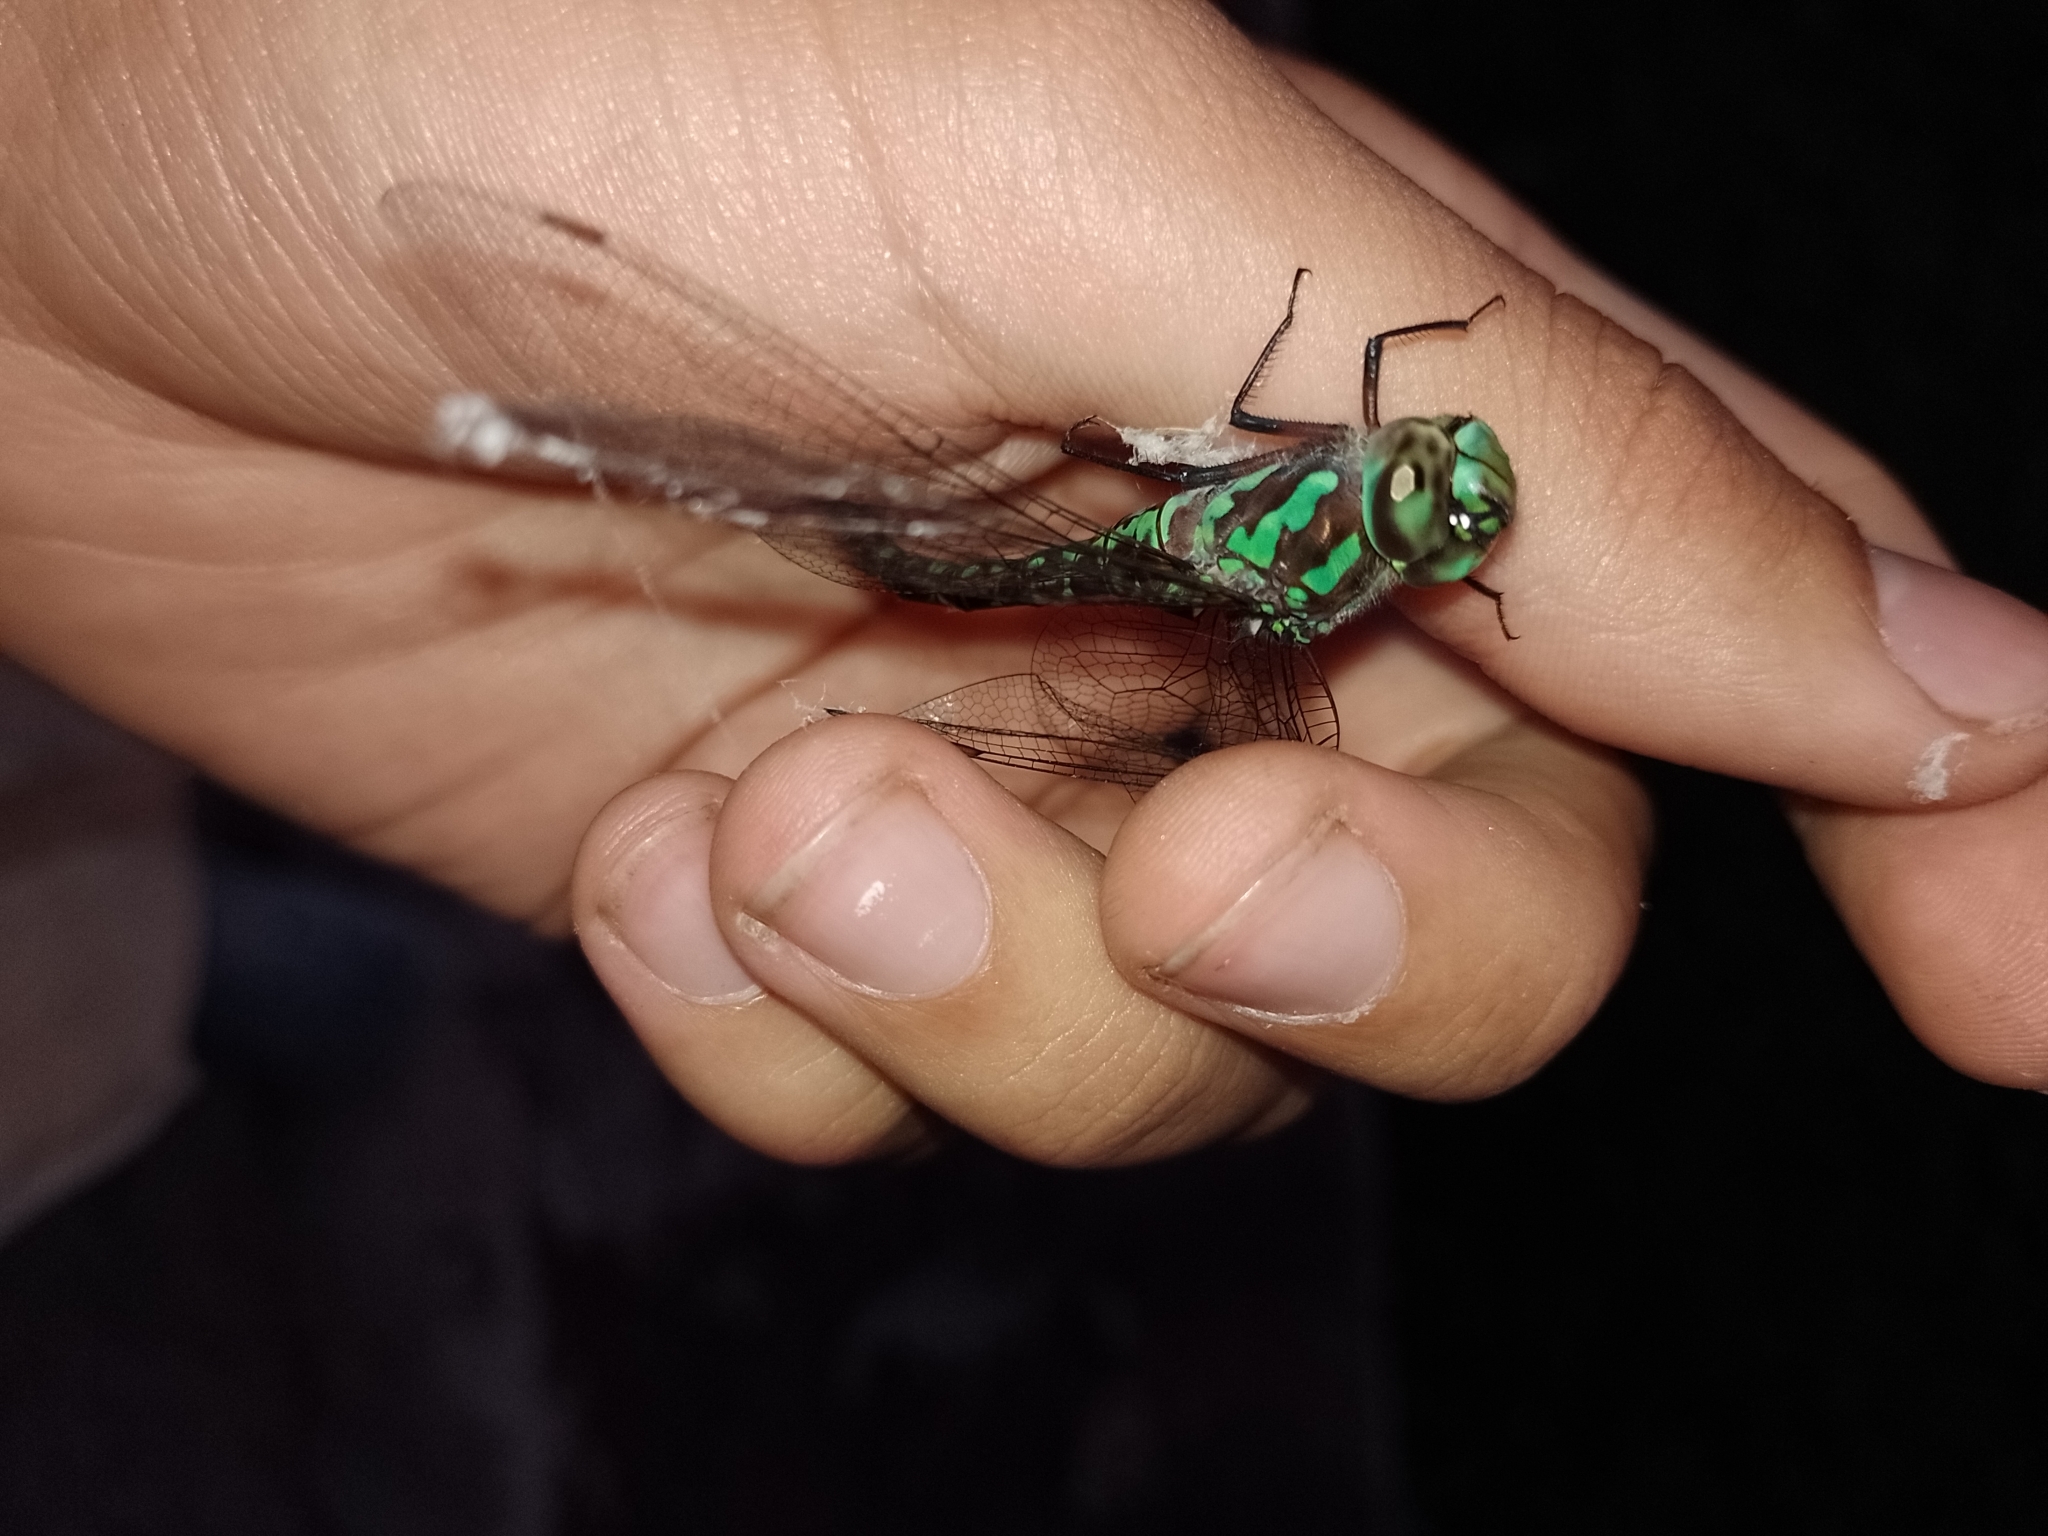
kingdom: Animalia
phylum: Arthropoda
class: Insecta
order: Odonata
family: Aeshnidae
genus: Rhionaeschna
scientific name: Rhionaeschna planaltica
